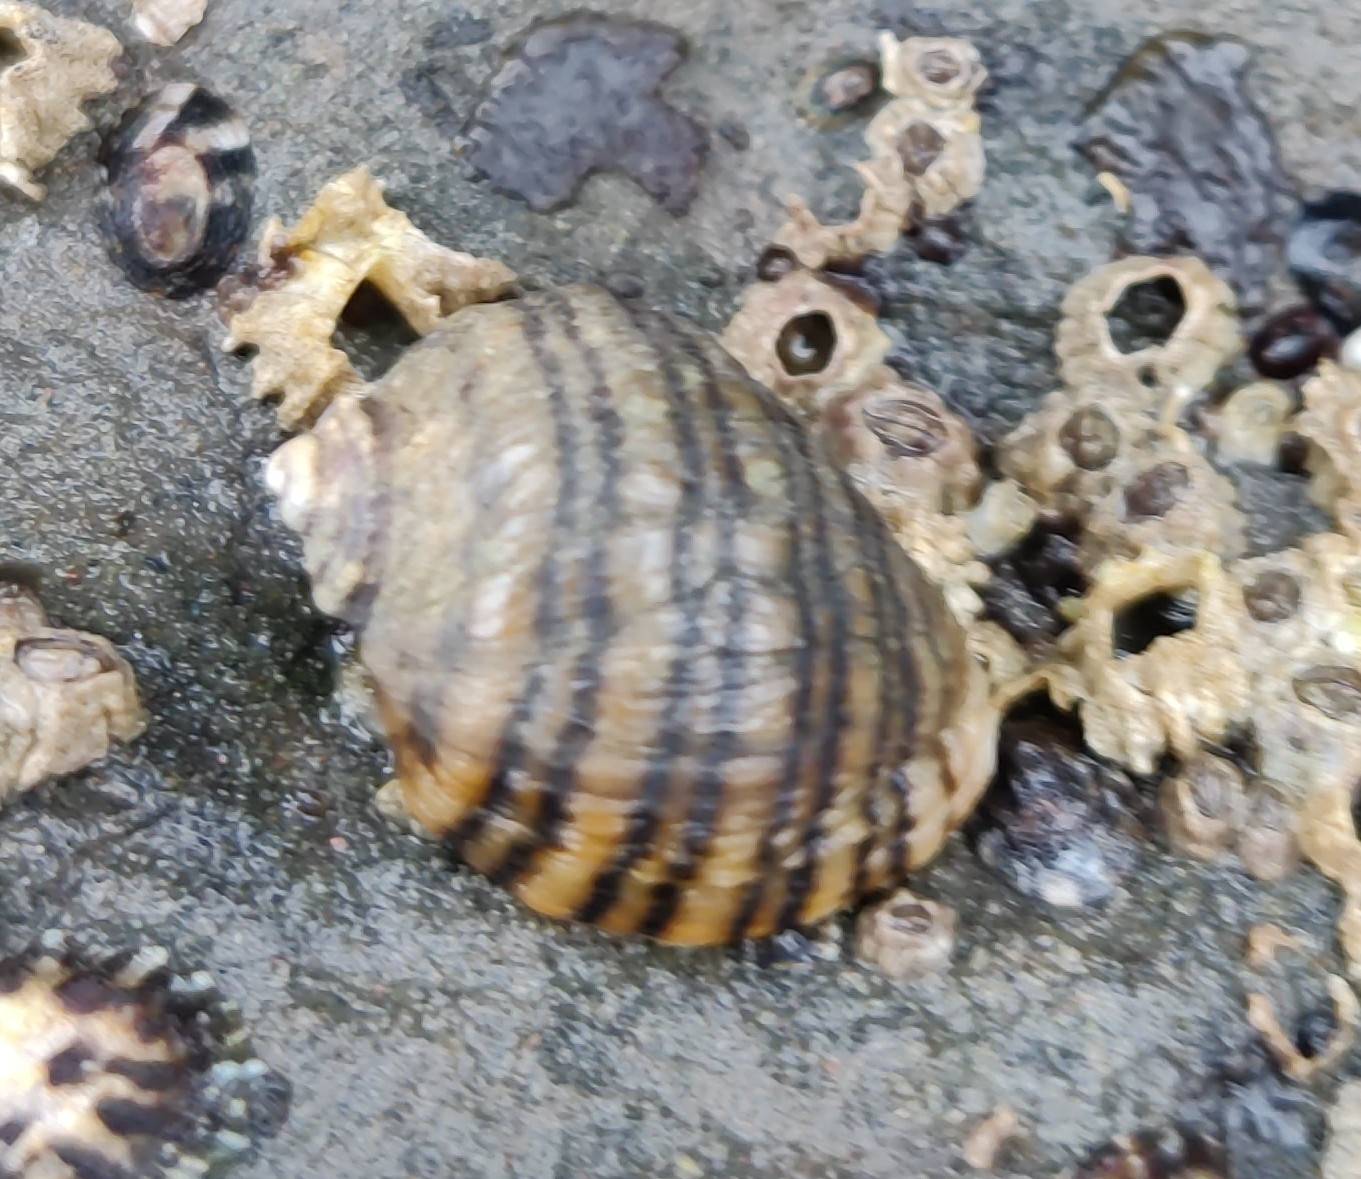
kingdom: Animalia
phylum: Mollusca
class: Gastropoda
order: Neogastropoda
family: Muricidae
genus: Nucella
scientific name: Nucella ostrina
